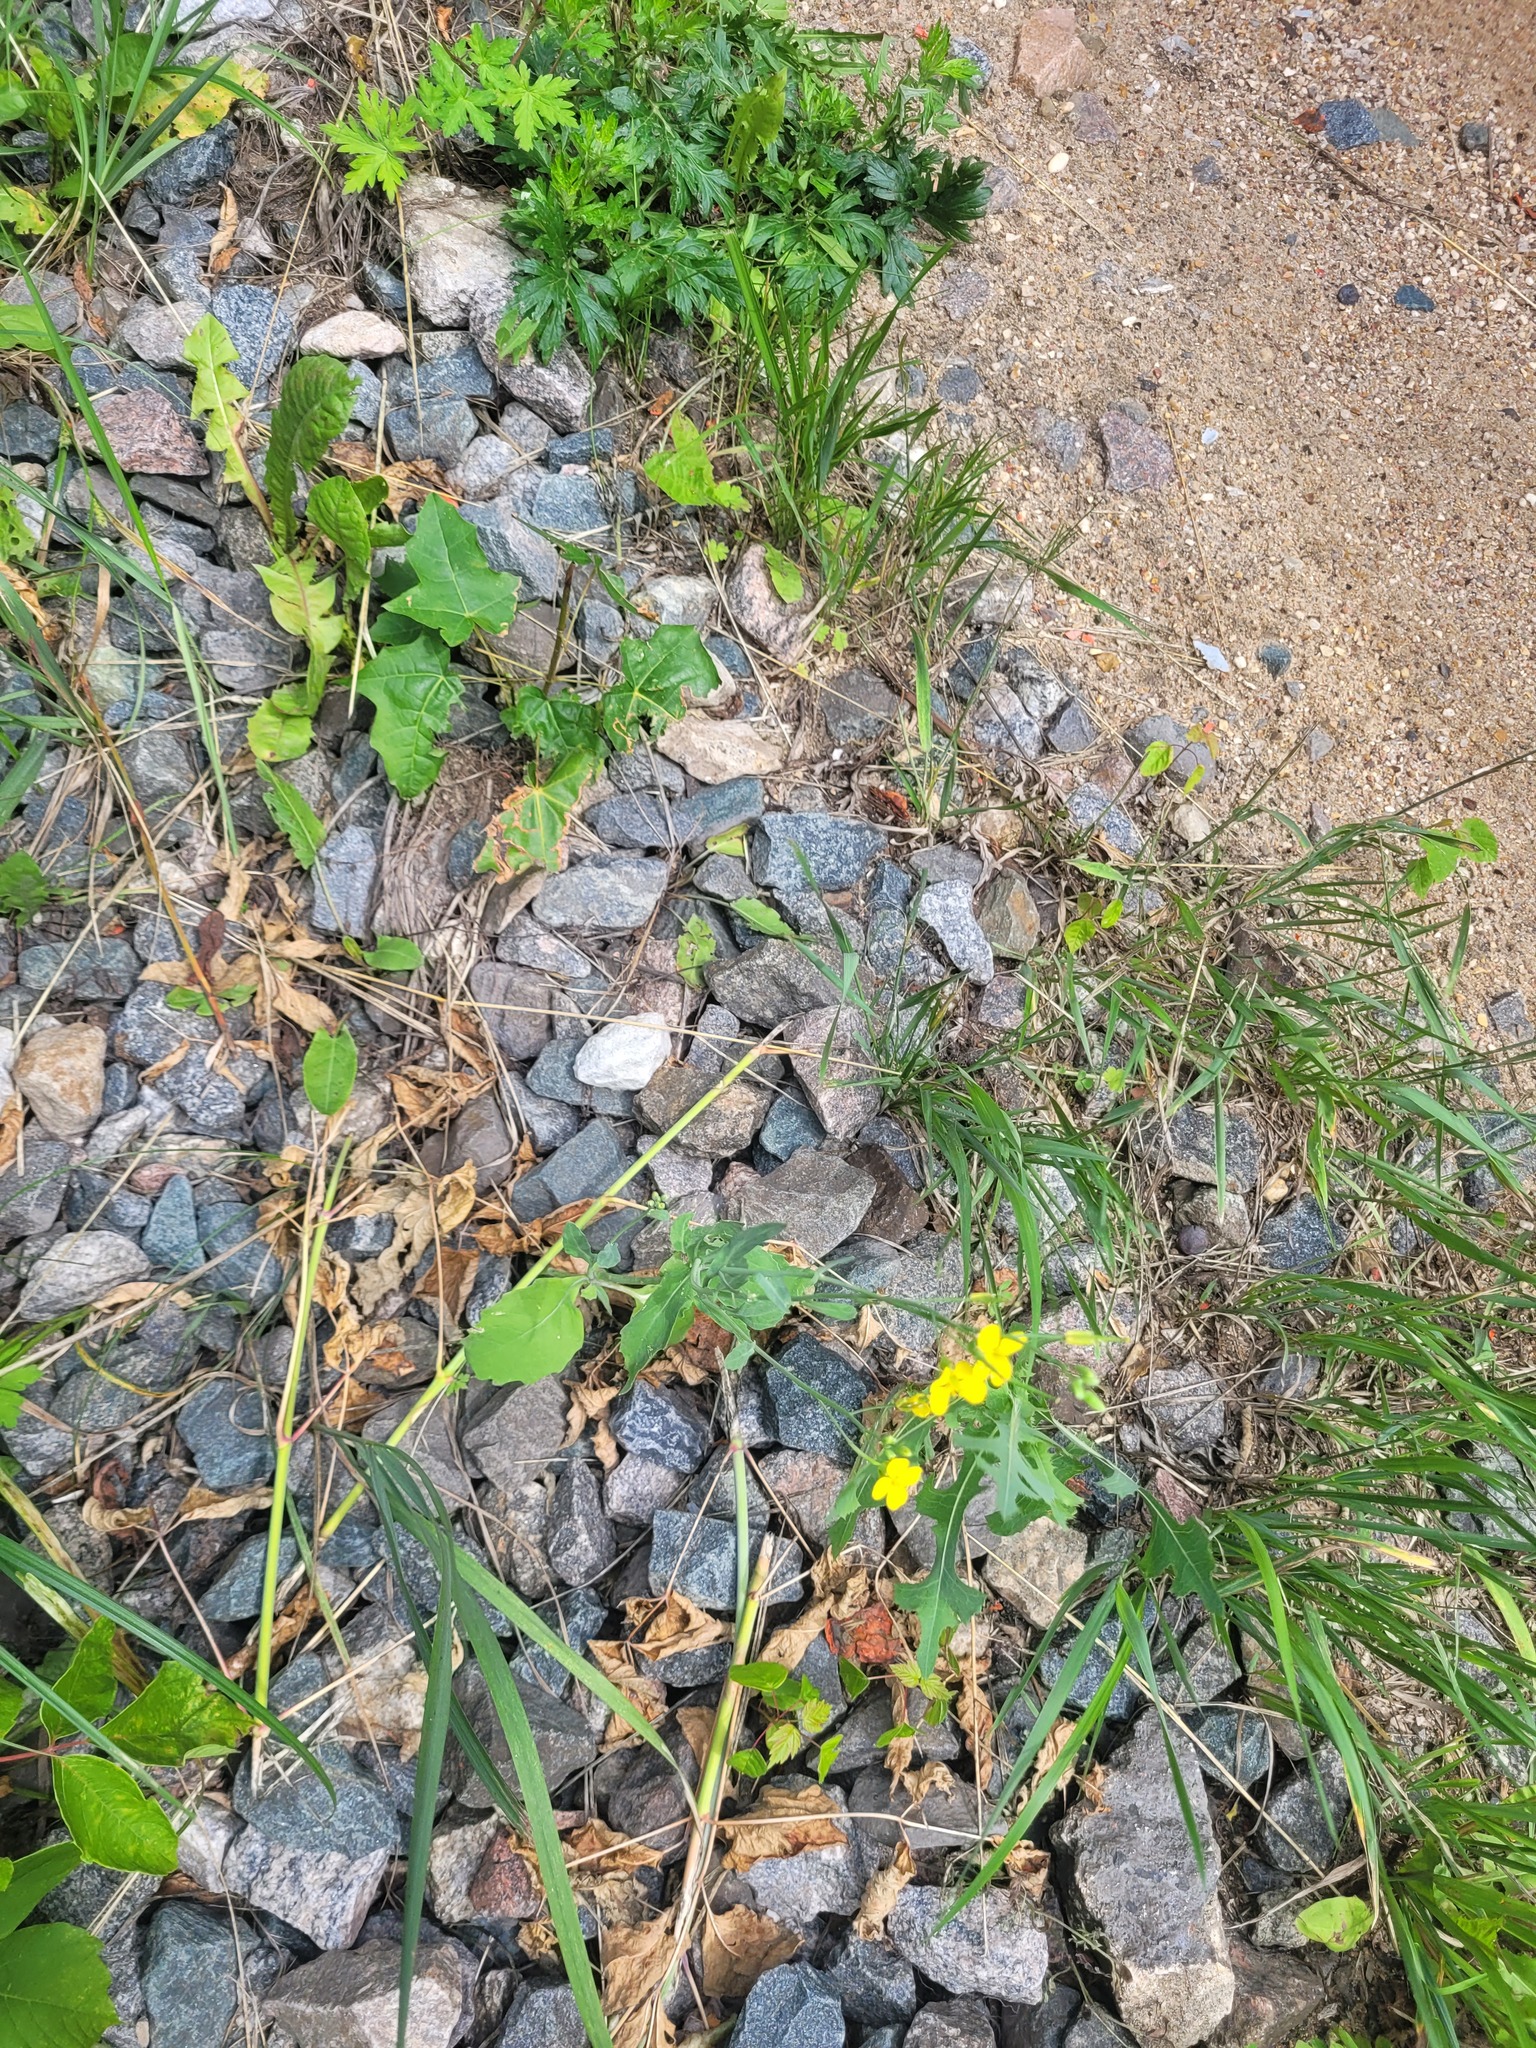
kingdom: Plantae
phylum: Tracheophyta
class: Magnoliopsida
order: Brassicales
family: Brassicaceae
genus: Brassica
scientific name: Brassica napus
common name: Rape
